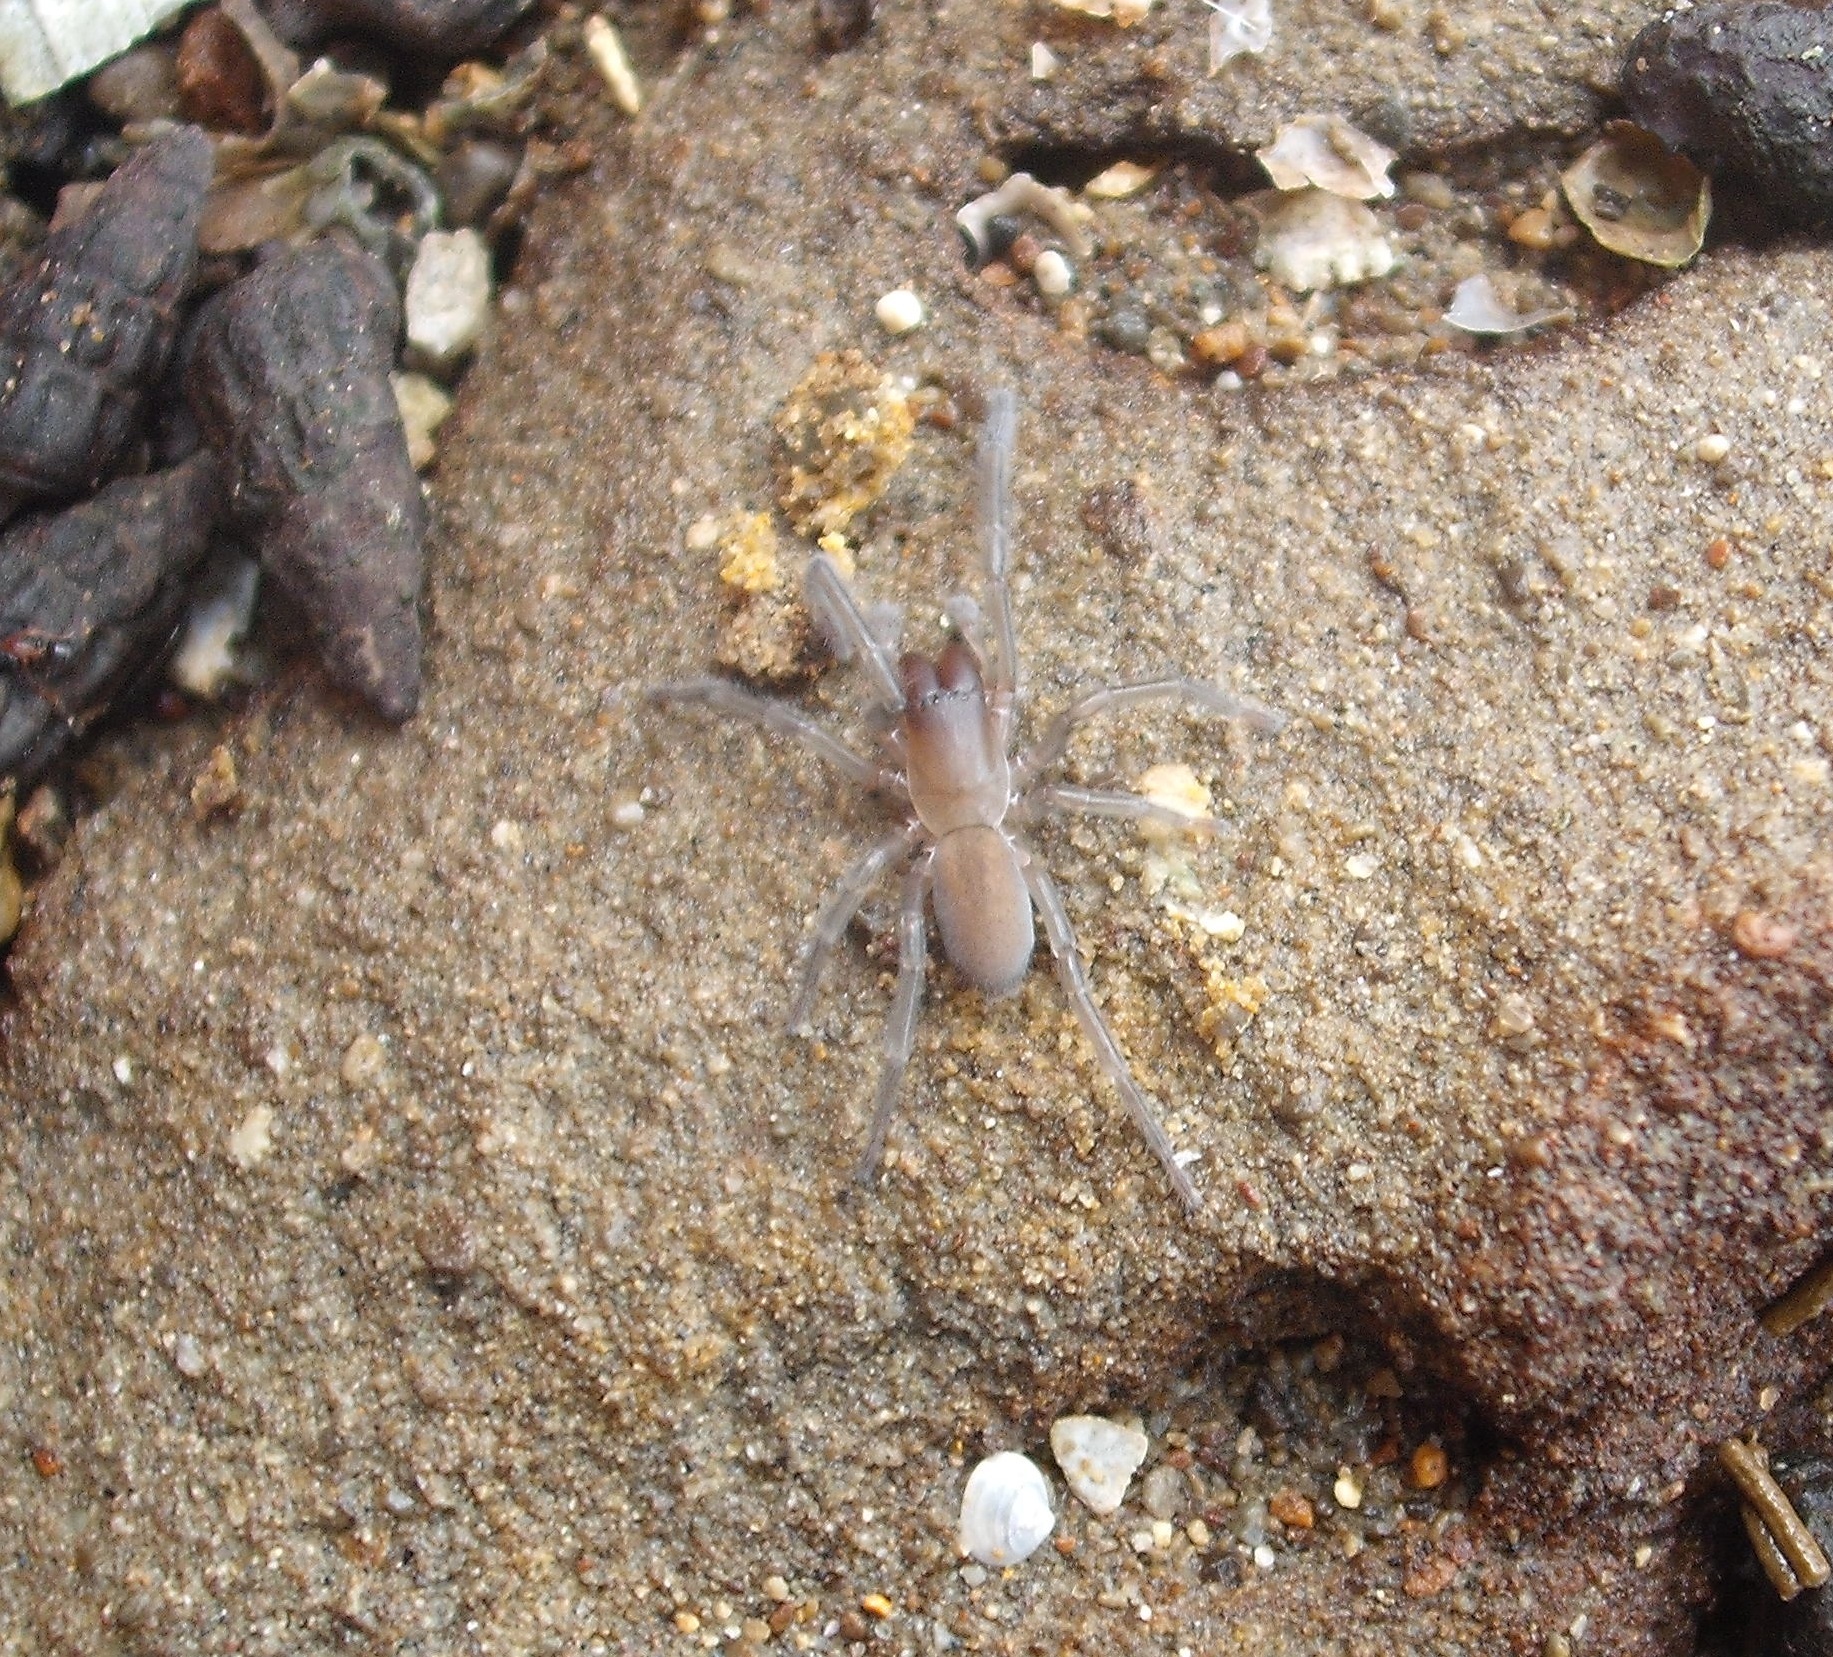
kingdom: Animalia
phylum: Arthropoda
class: Arachnida
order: Araneae
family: Desidae
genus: Desis
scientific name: Desis marina
